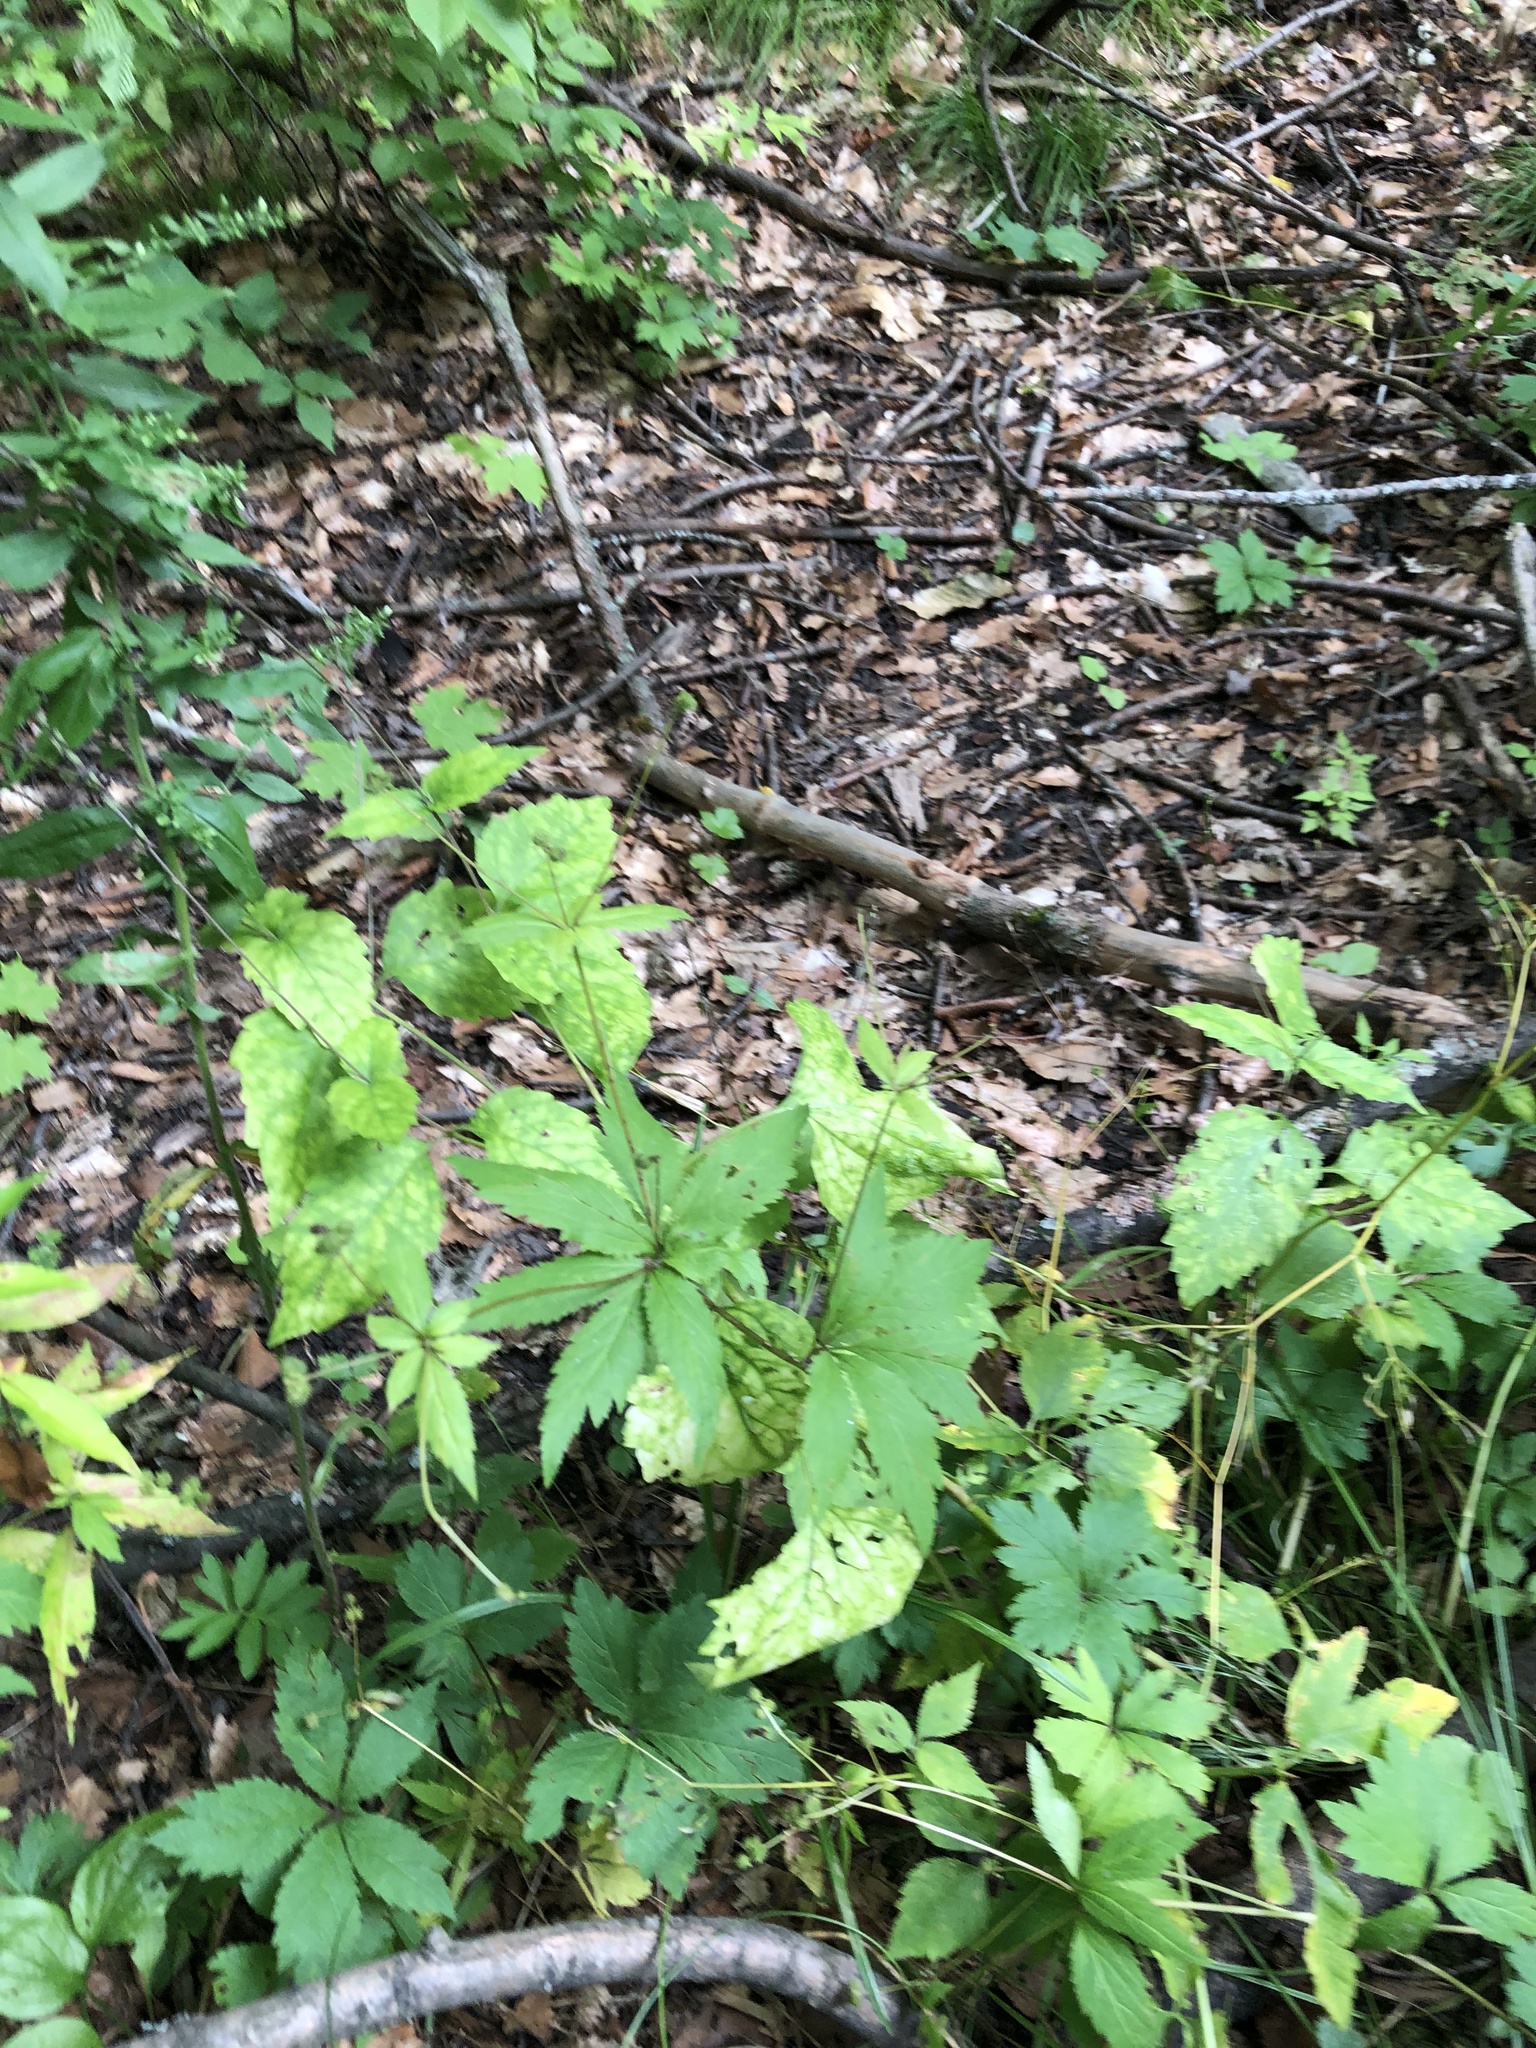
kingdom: Plantae
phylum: Tracheophyta
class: Magnoliopsida
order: Apiales
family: Apiaceae
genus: Sanicula
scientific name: Sanicula odorata
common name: Cluster sanicle
